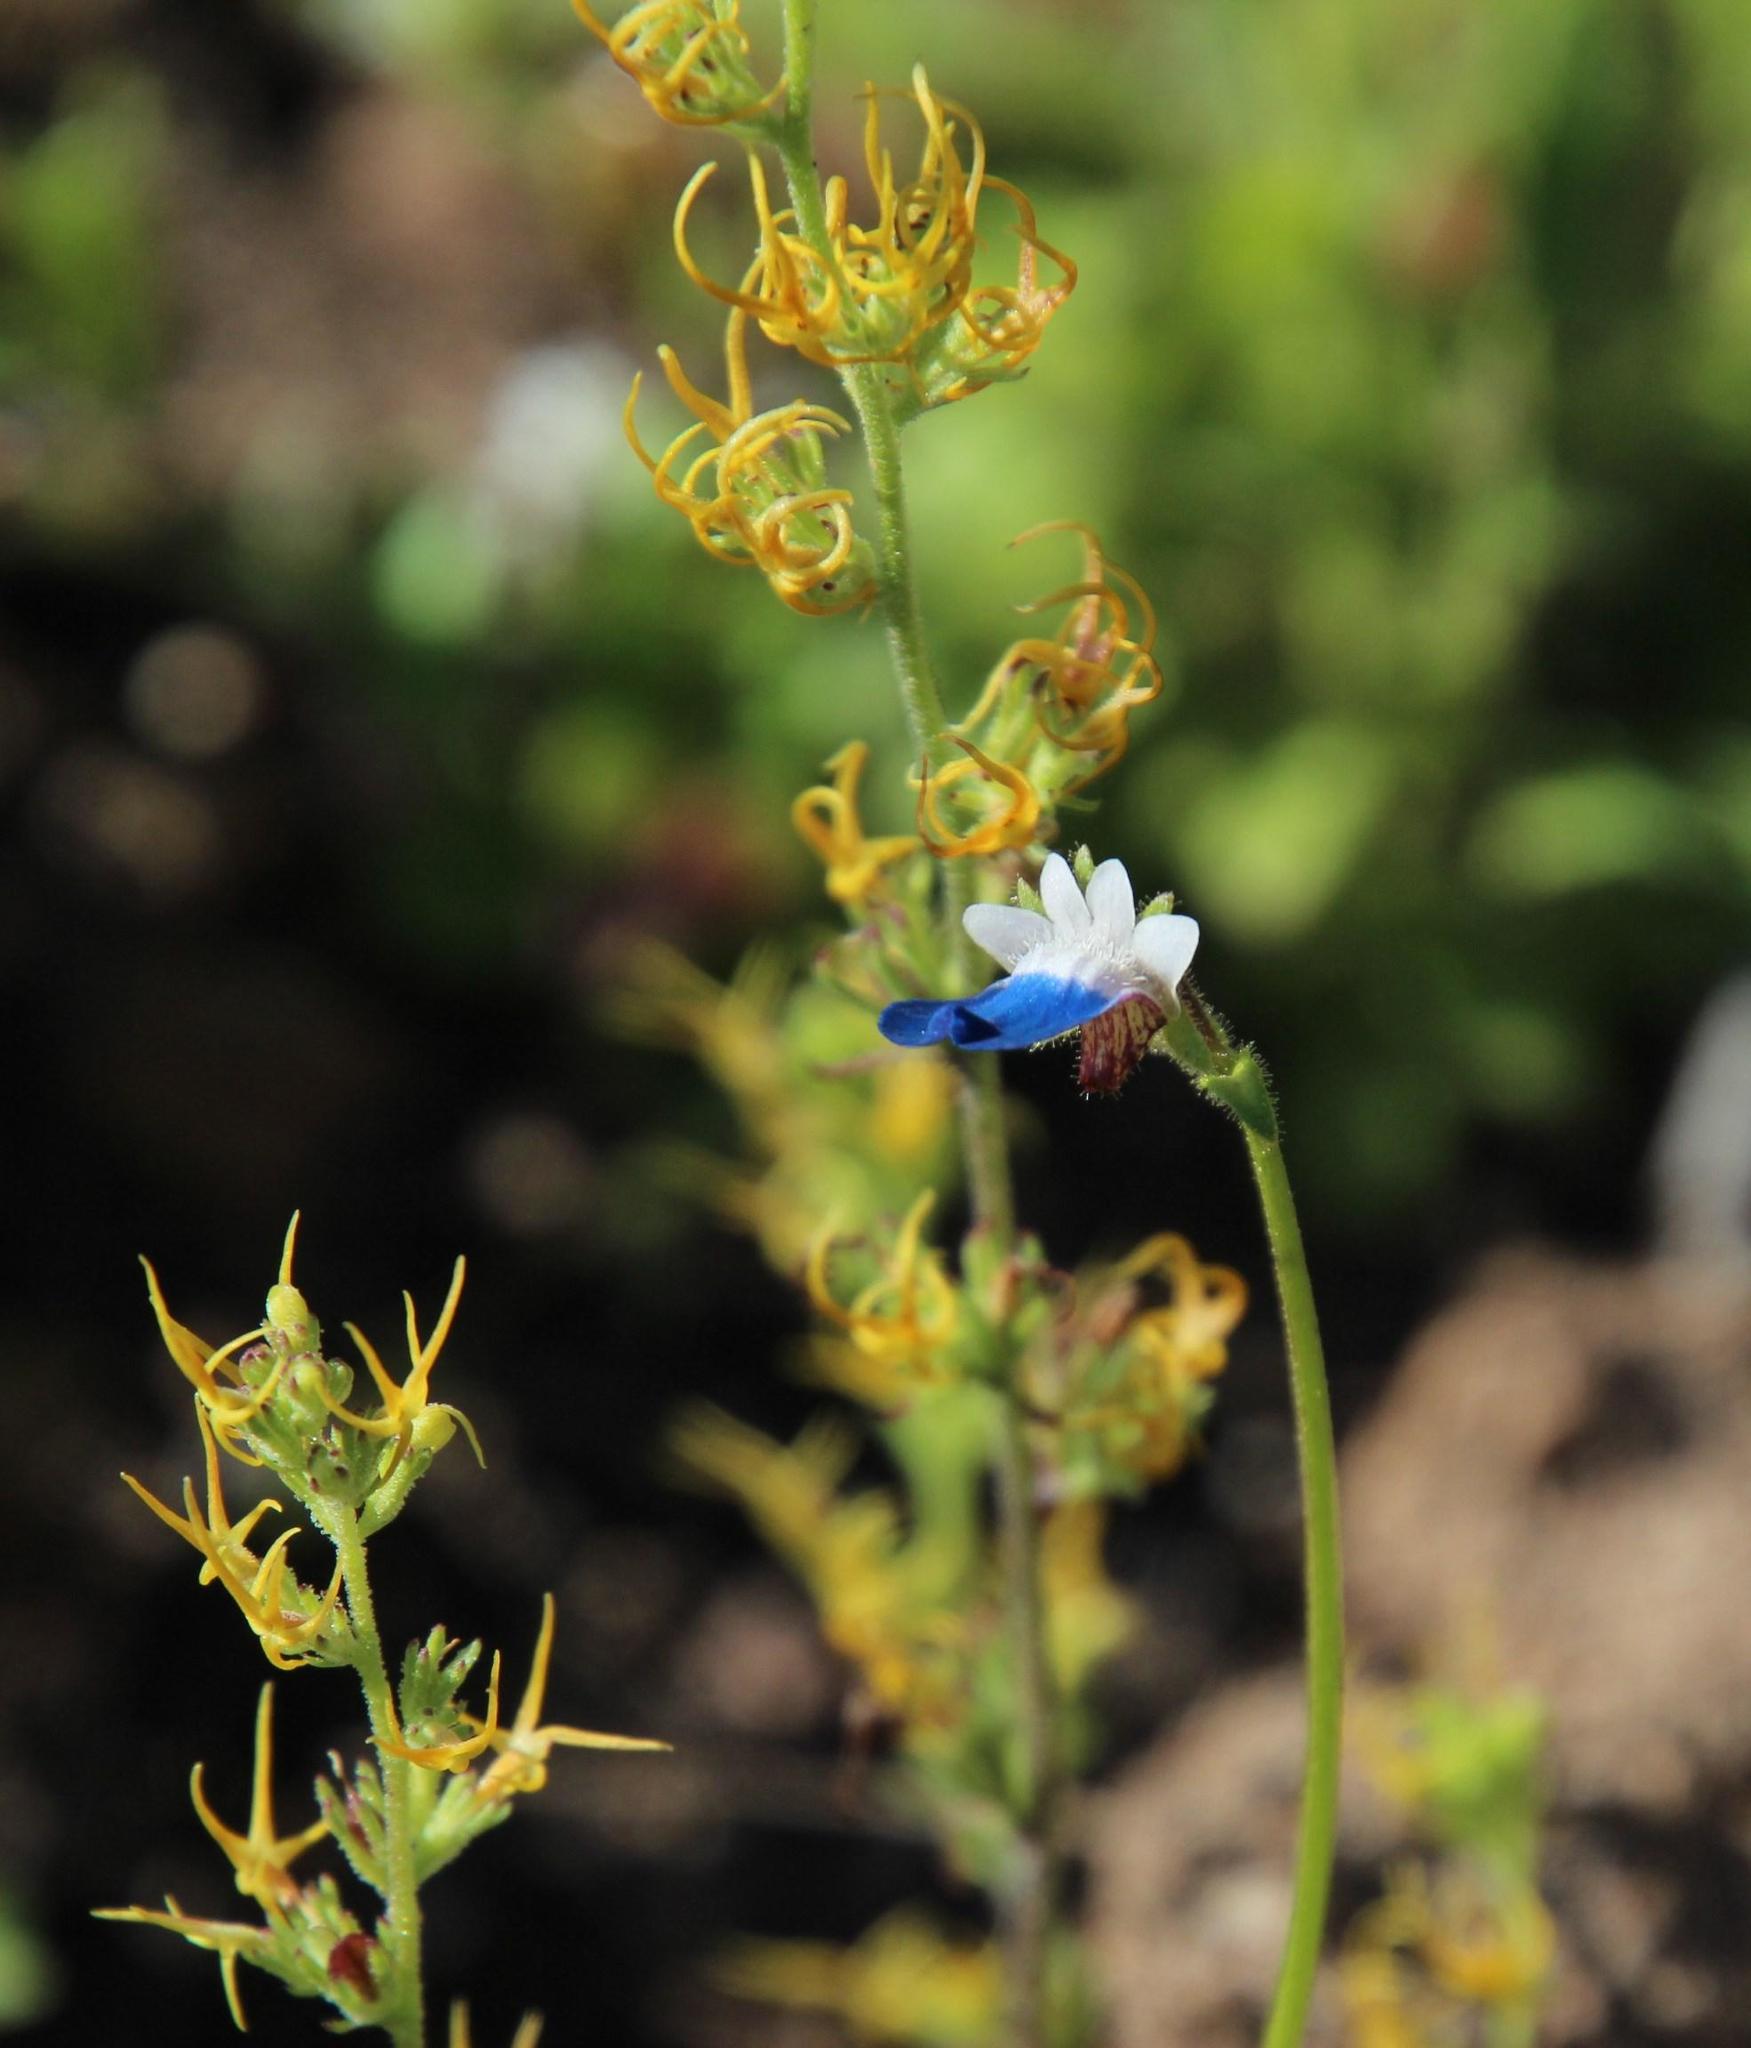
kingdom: Plantae
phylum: Tracheophyta
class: Magnoliopsida
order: Lamiales
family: Scrophulariaceae
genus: Nemesia
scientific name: Nemesia barbata
